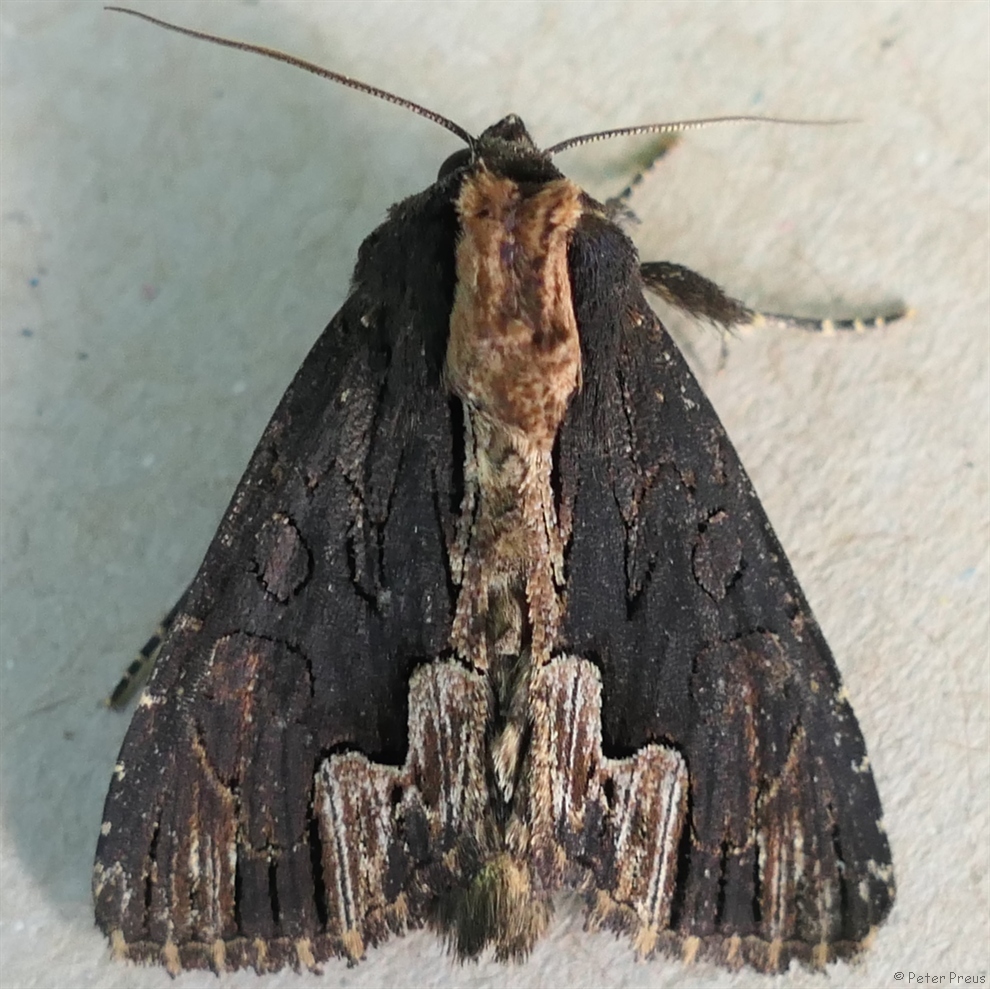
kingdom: Animalia
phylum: Arthropoda
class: Insecta
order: Lepidoptera
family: Noctuidae
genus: Dypterygia
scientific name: Dypterygia scabriuscula
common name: Bird's wing
